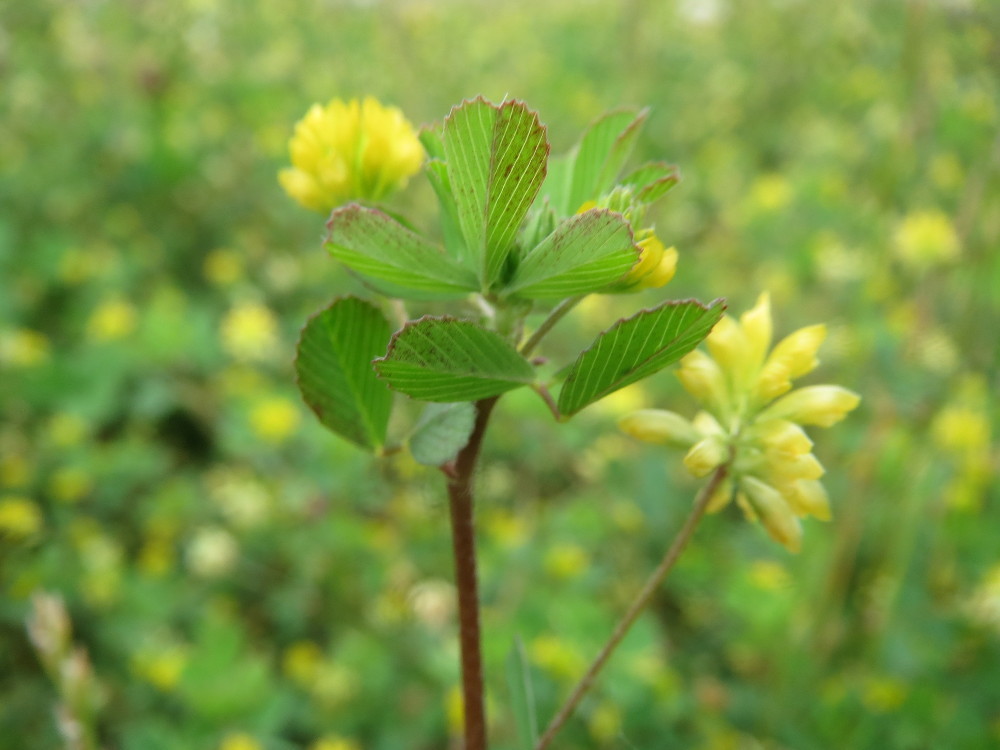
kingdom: Plantae
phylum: Tracheophyta
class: Magnoliopsida
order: Fabales
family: Fabaceae
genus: Trifolium
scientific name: Trifolium dubium
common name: Suckling clover
